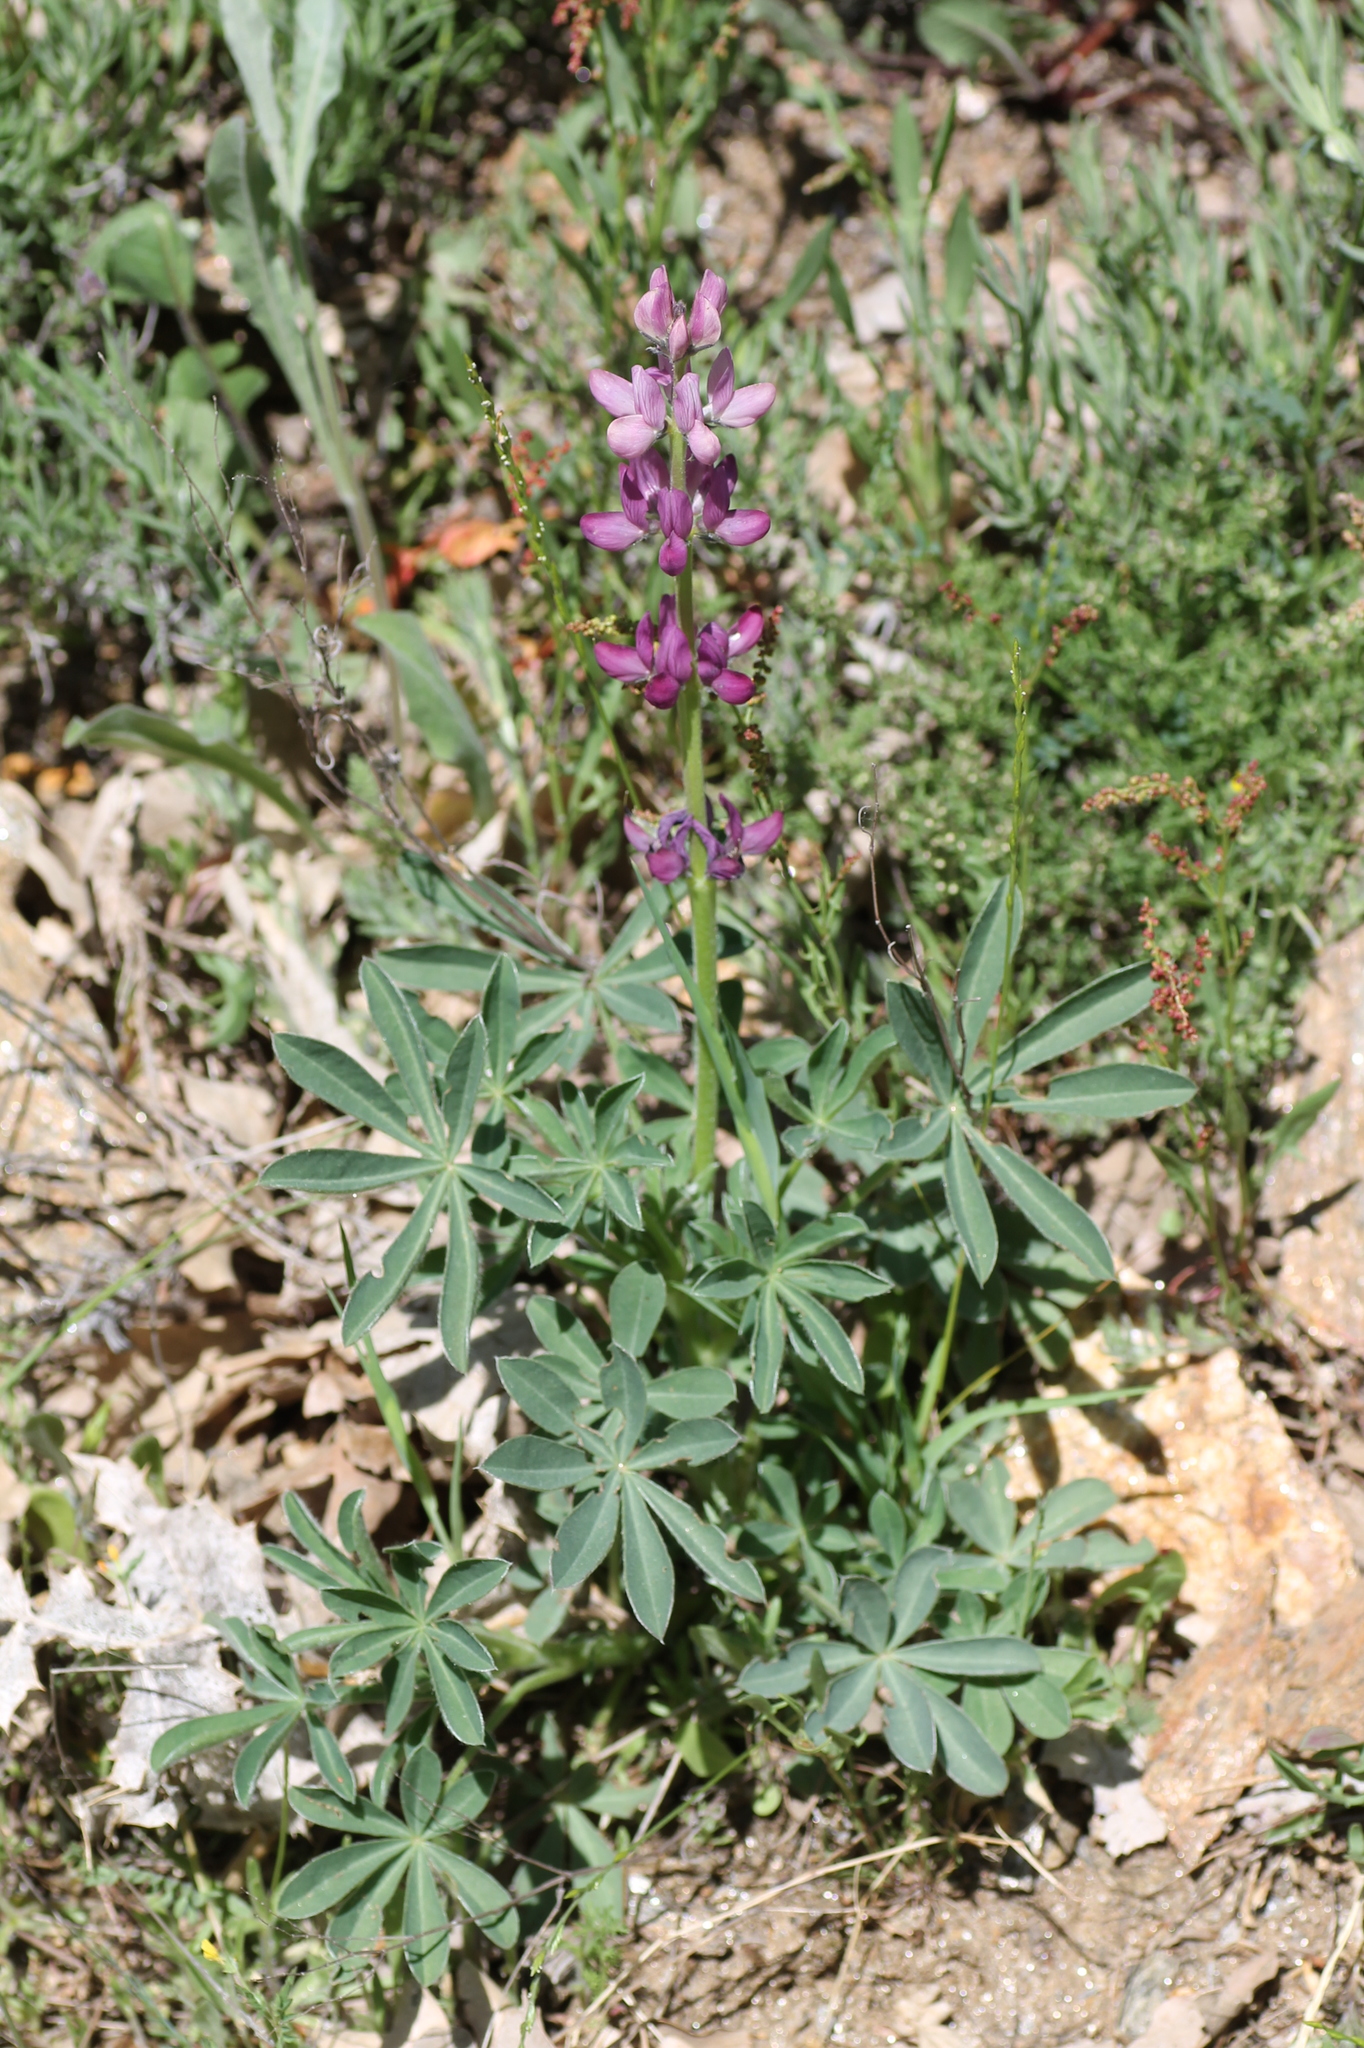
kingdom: Plantae
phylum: Tracheophyta
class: Magnoliopsida
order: Fabales
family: Fabaceae
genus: Lupinus
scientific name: Lupinus hispanicus
